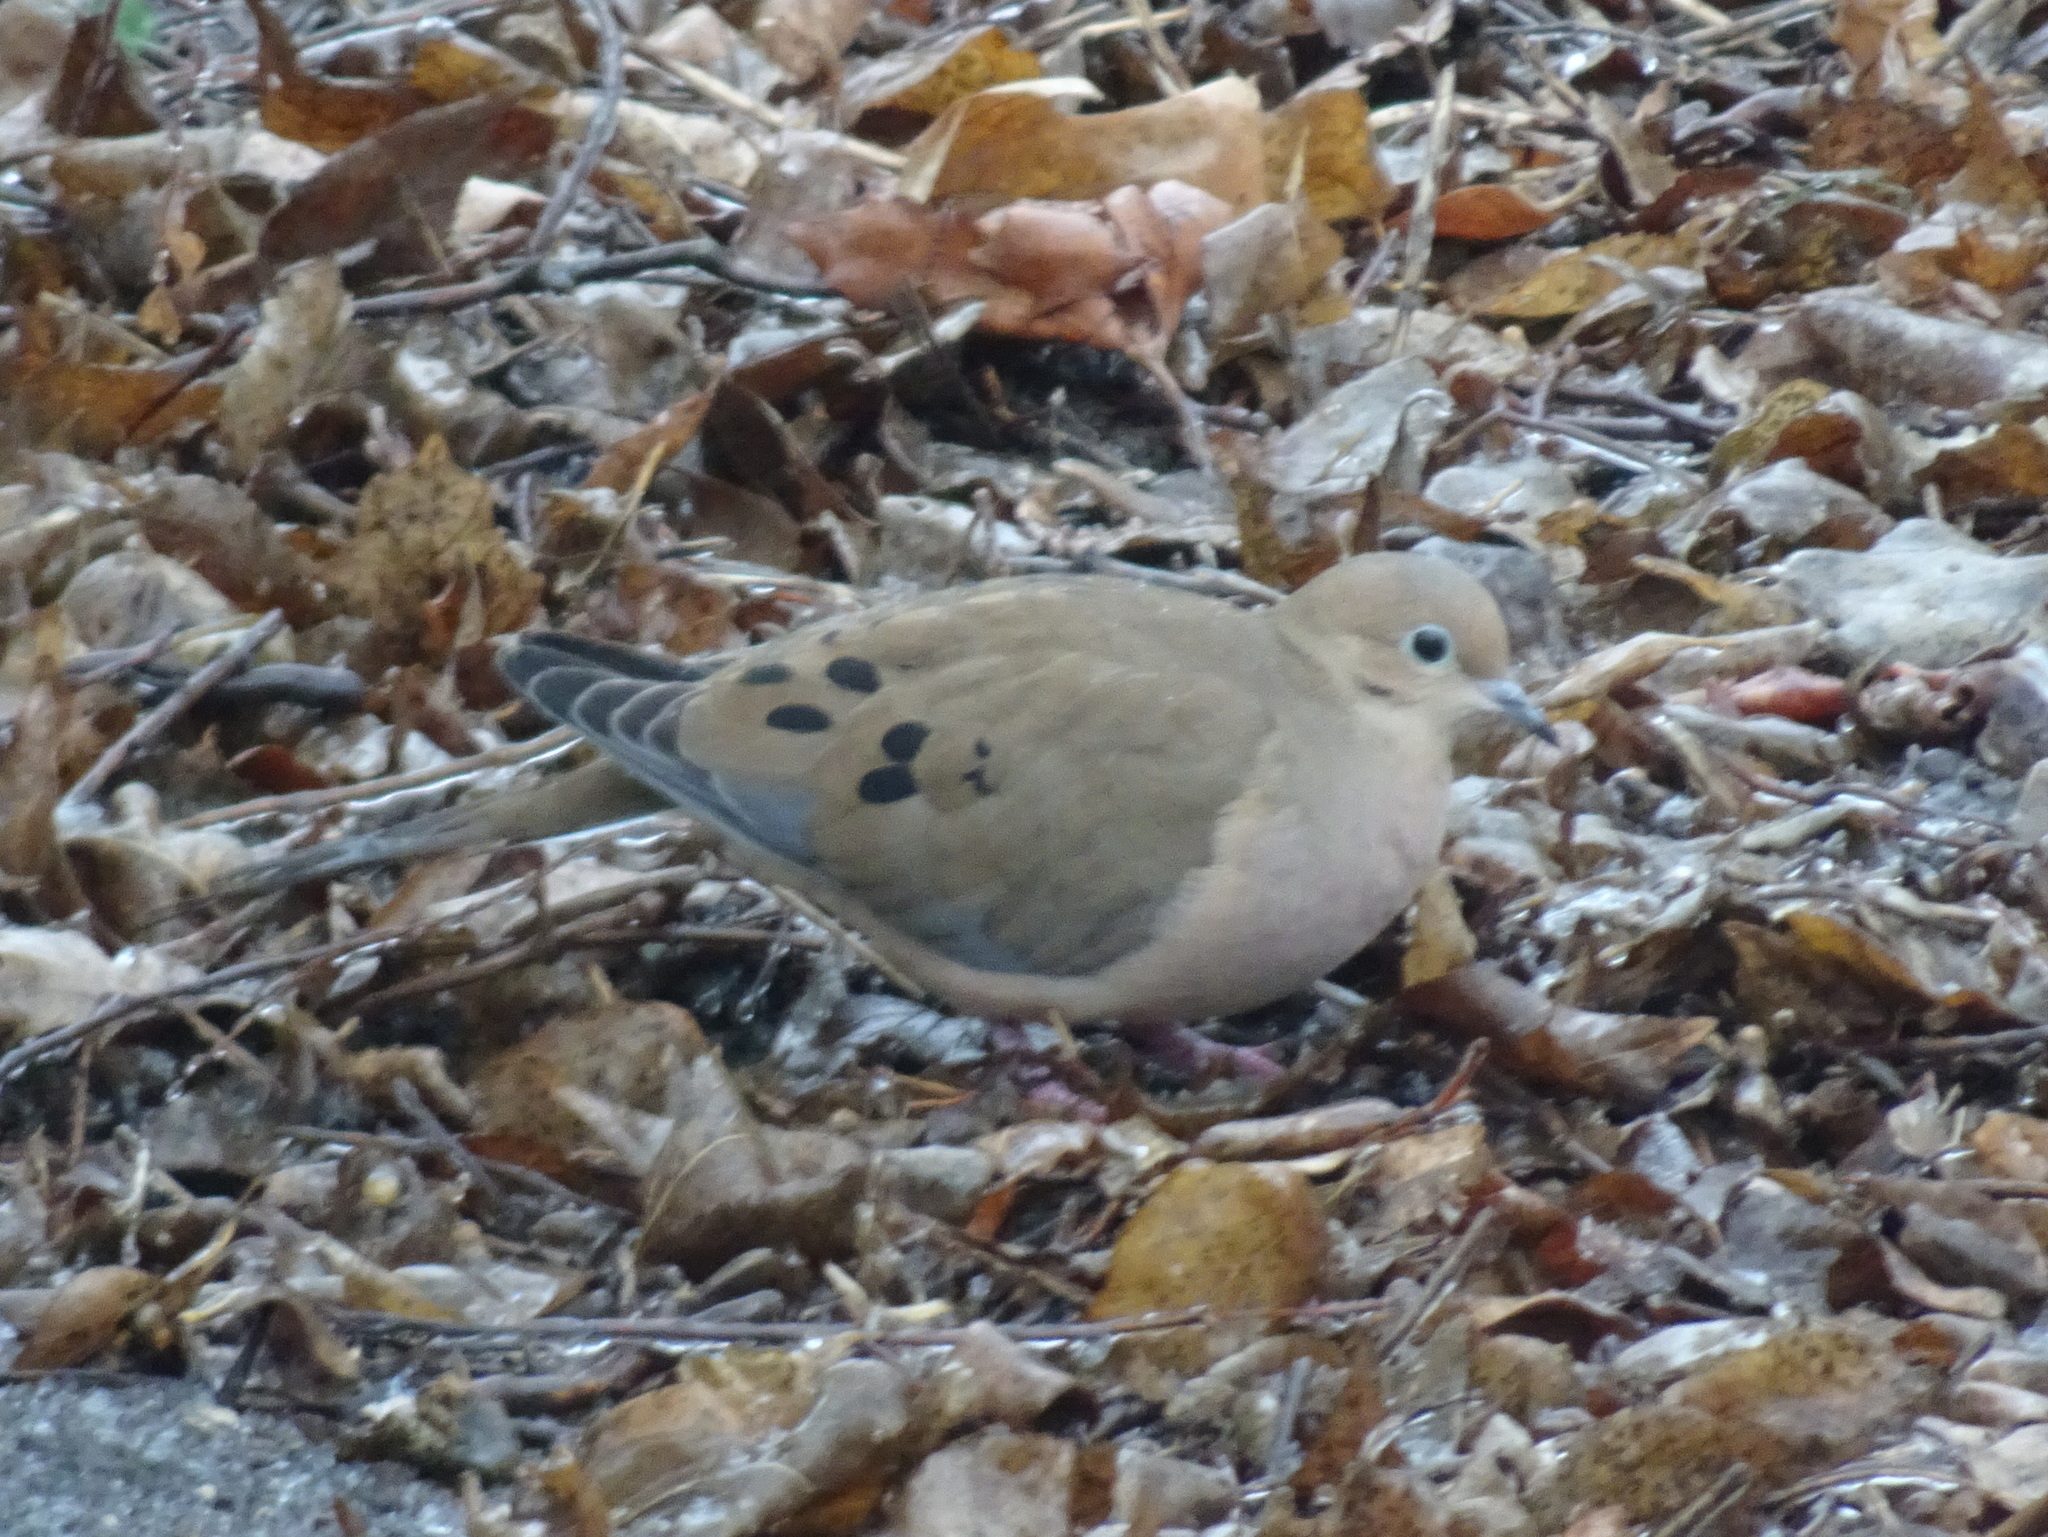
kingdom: Animalia
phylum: Chordata
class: Aves
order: Columbiformes
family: Columbidae
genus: Zenaida
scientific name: Zenaida macroura
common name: Mourning dove
